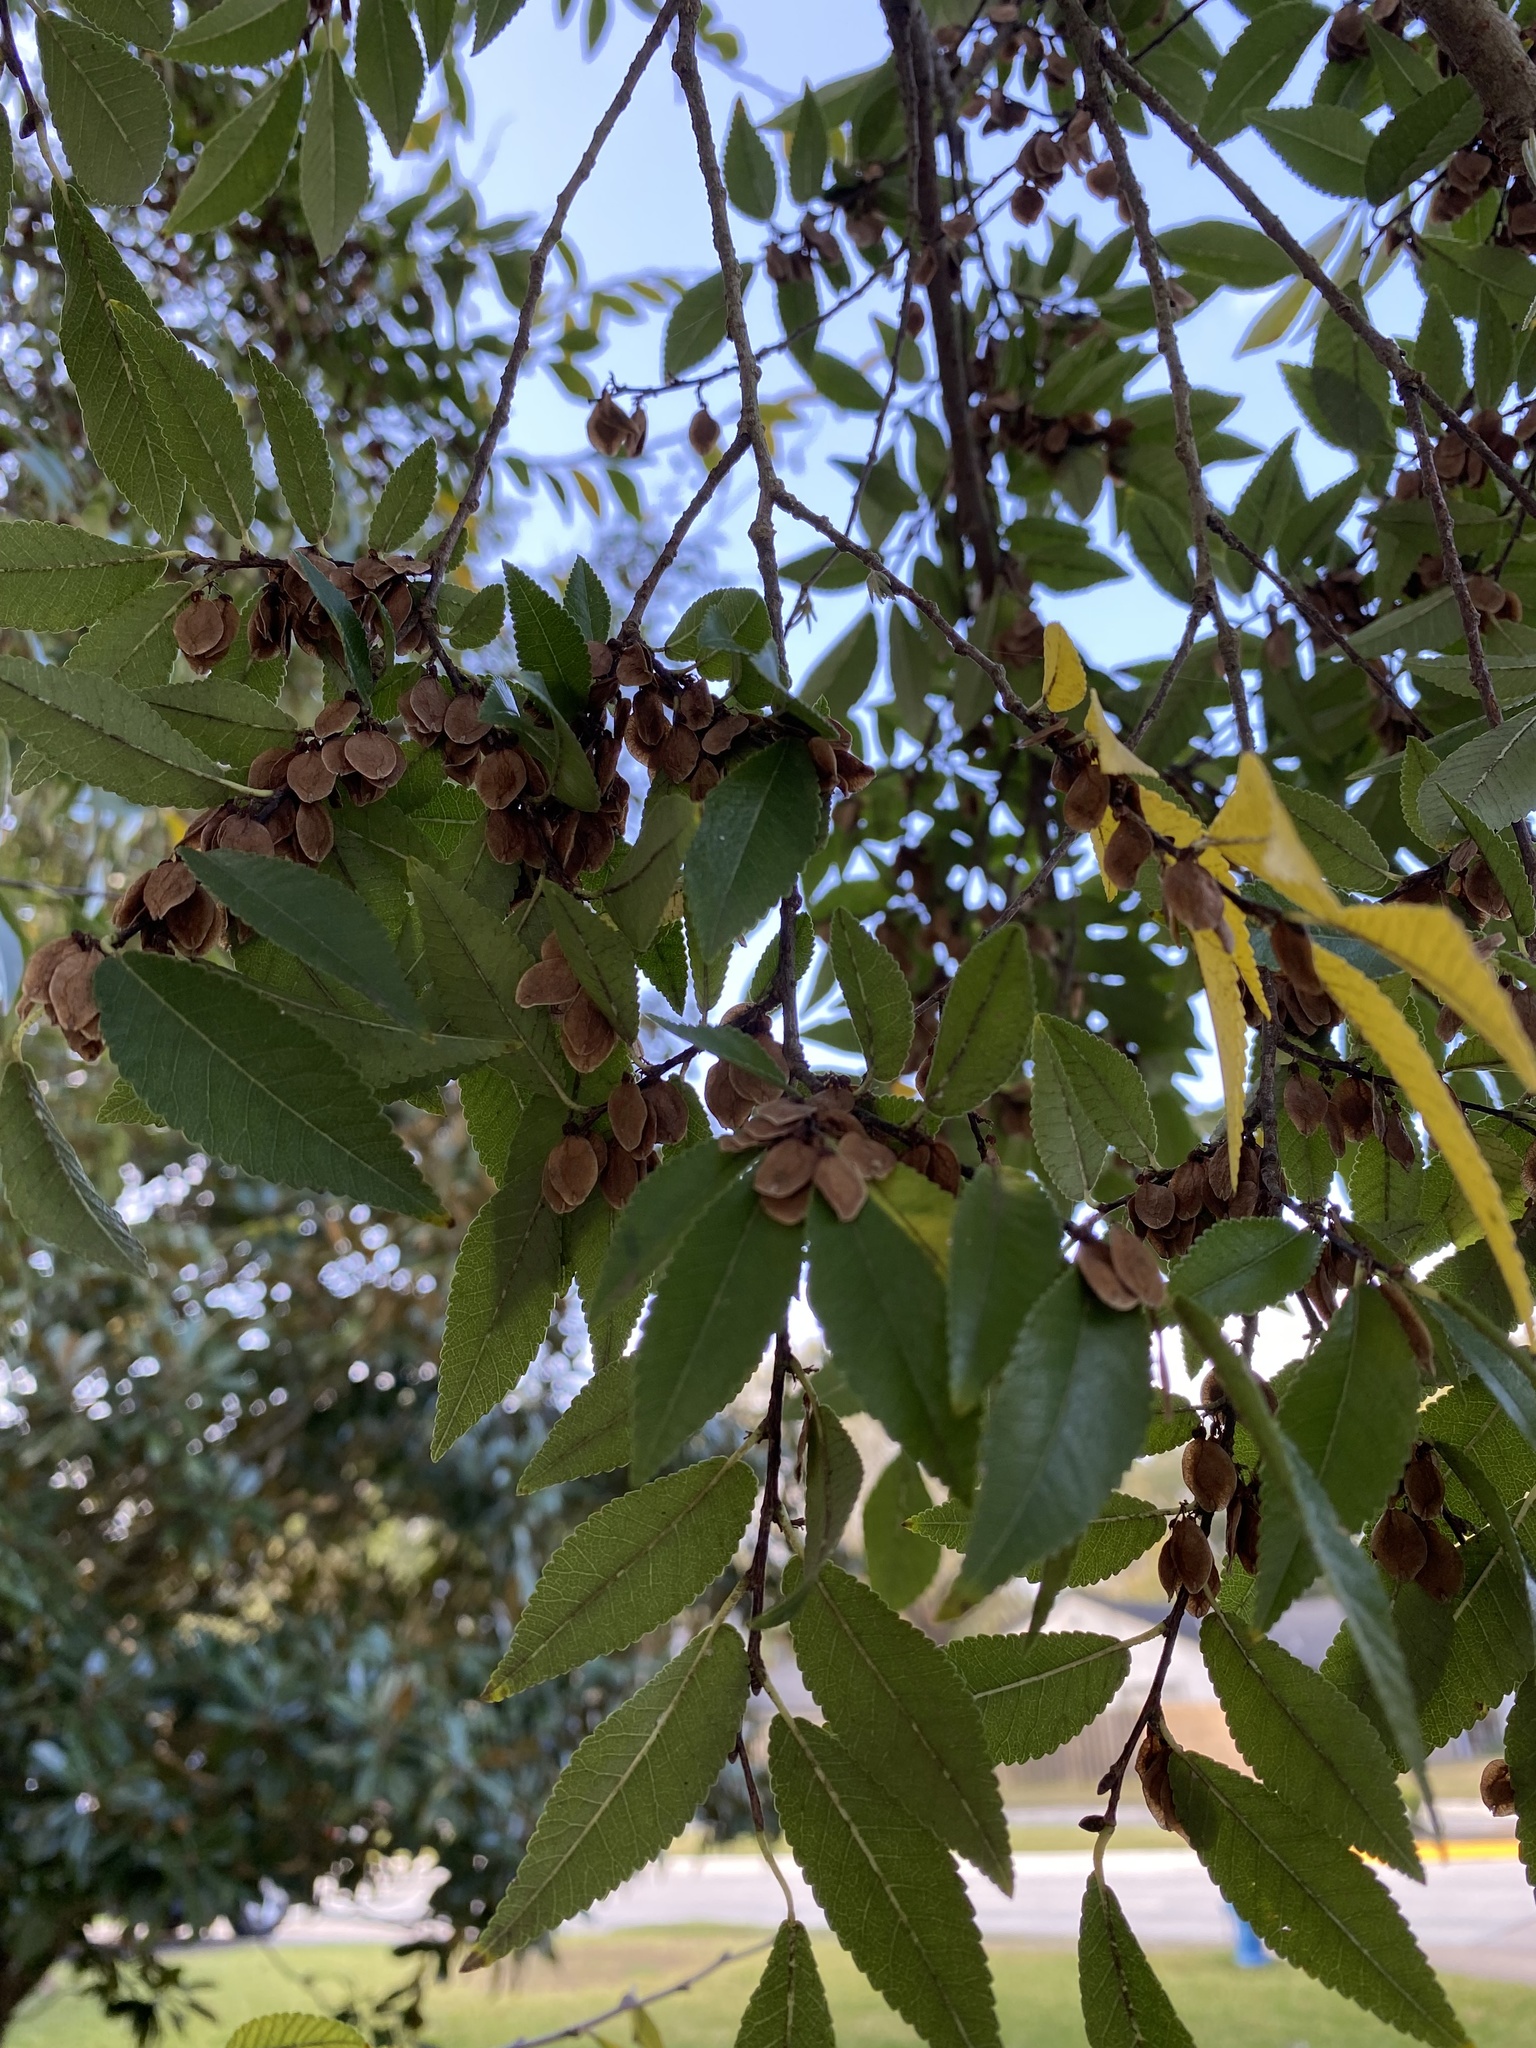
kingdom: Plantae
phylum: Tracheophyta
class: Magnoliopsida
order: Rosales
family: Ulmaceae
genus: Ulmus
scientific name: Ulmus parvifolia
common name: Chinese elm
